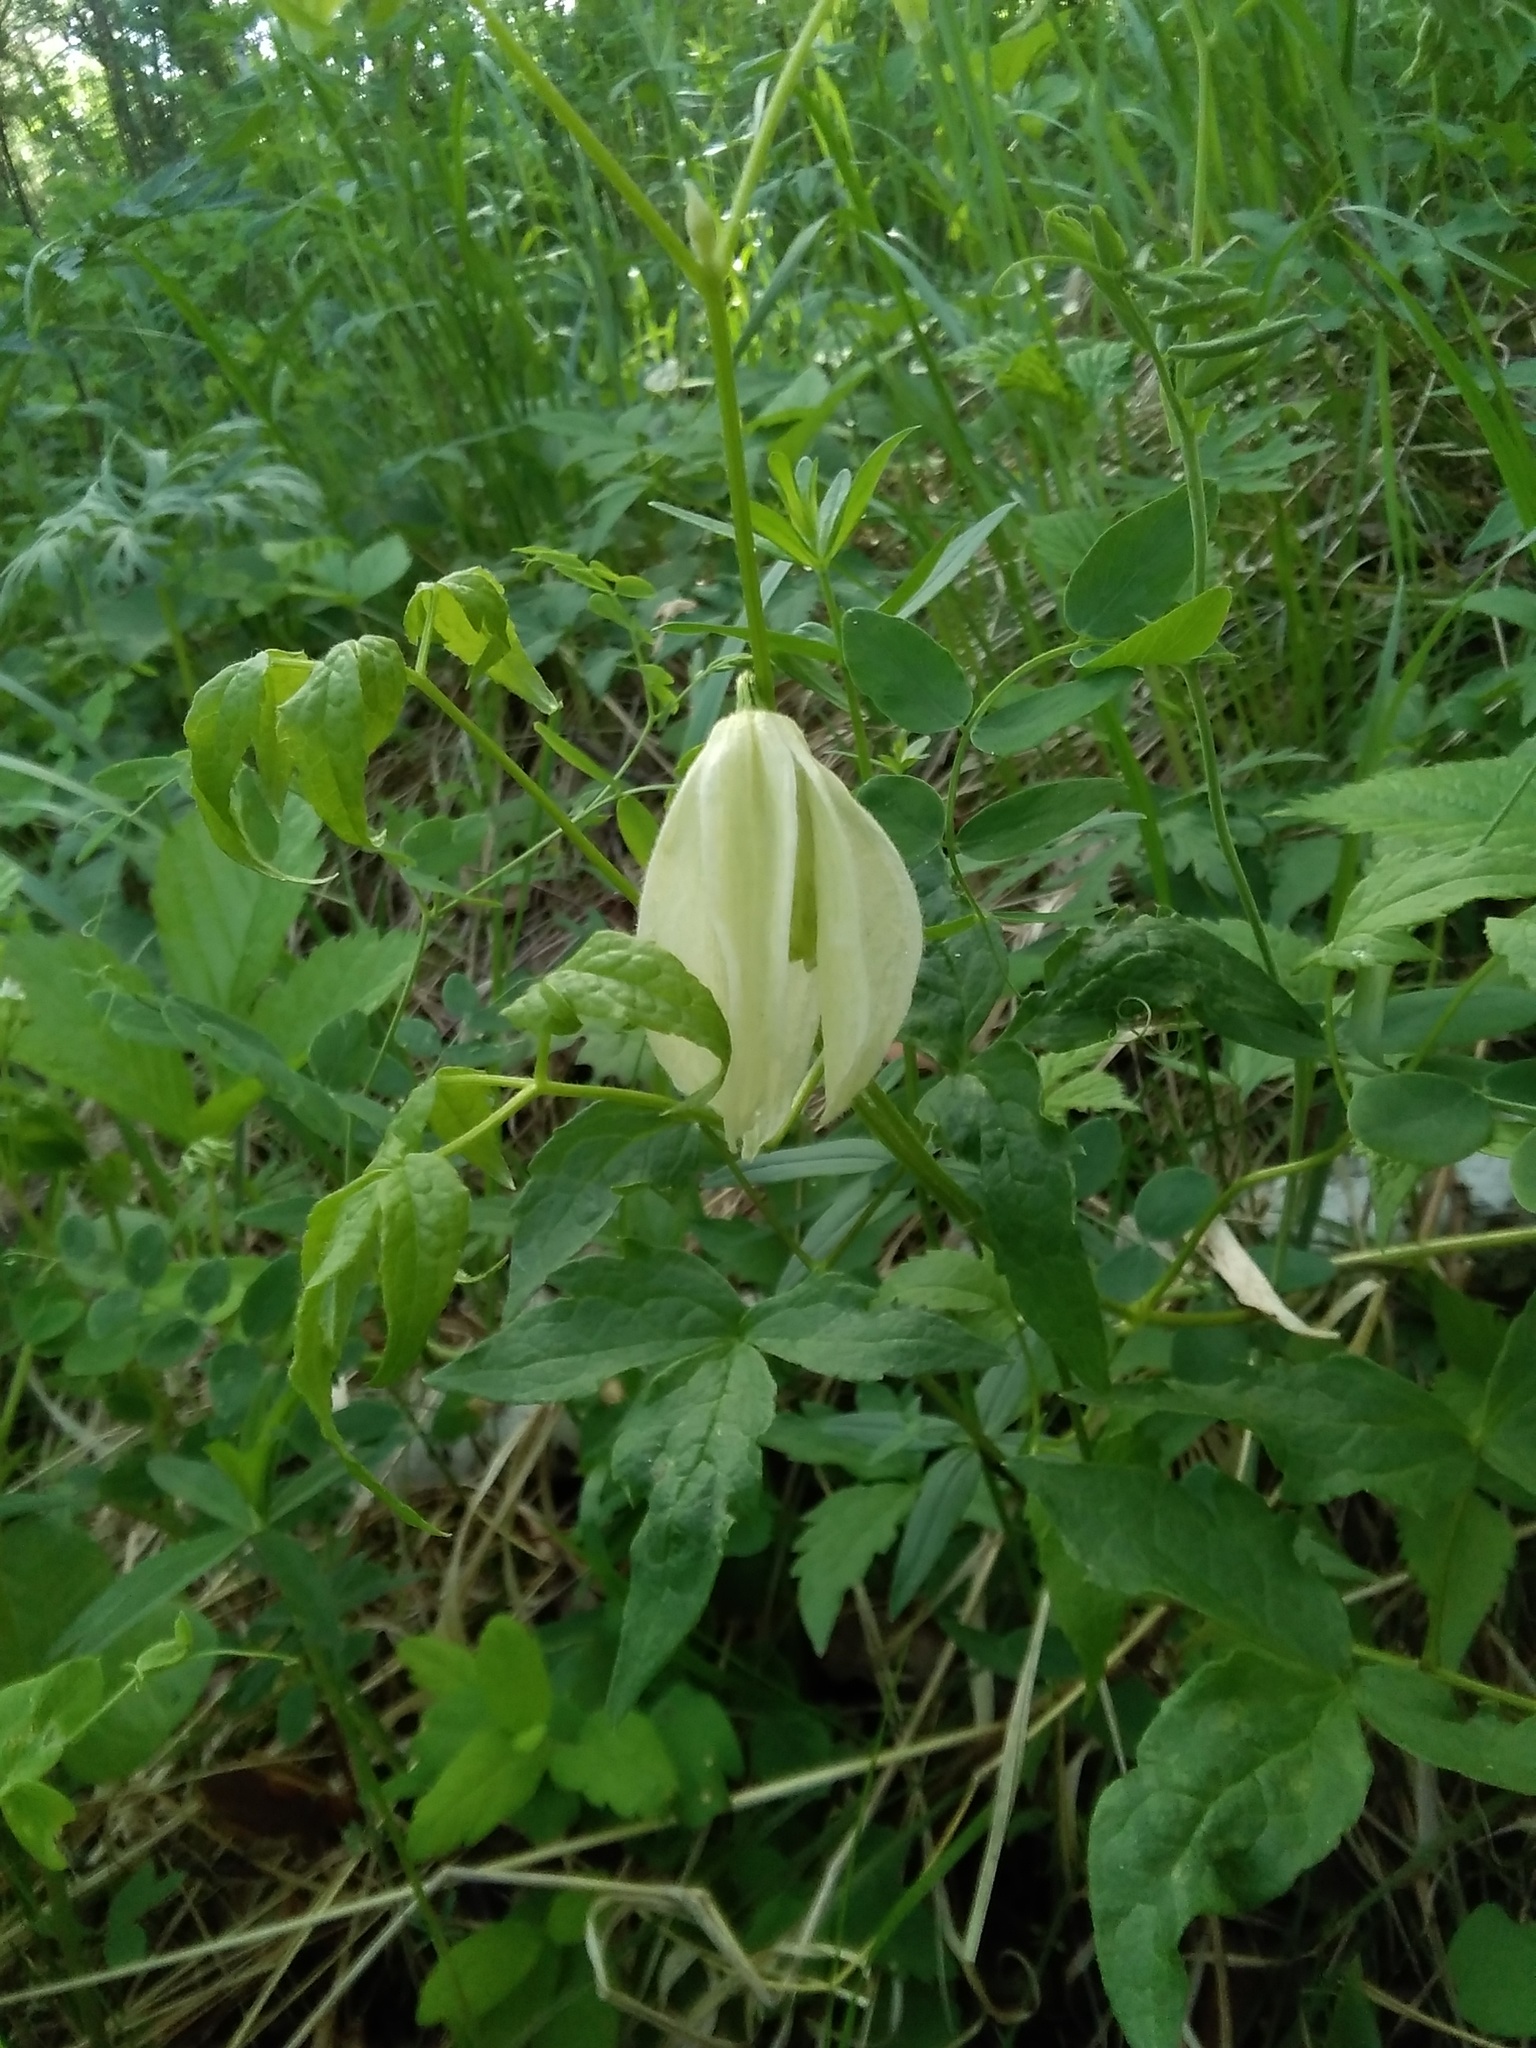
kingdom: Plantae
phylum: Tracheophyta
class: Magnoliopsida
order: Ranunculales
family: Ranunculaceae
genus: Clematis
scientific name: Clematis sibirica
